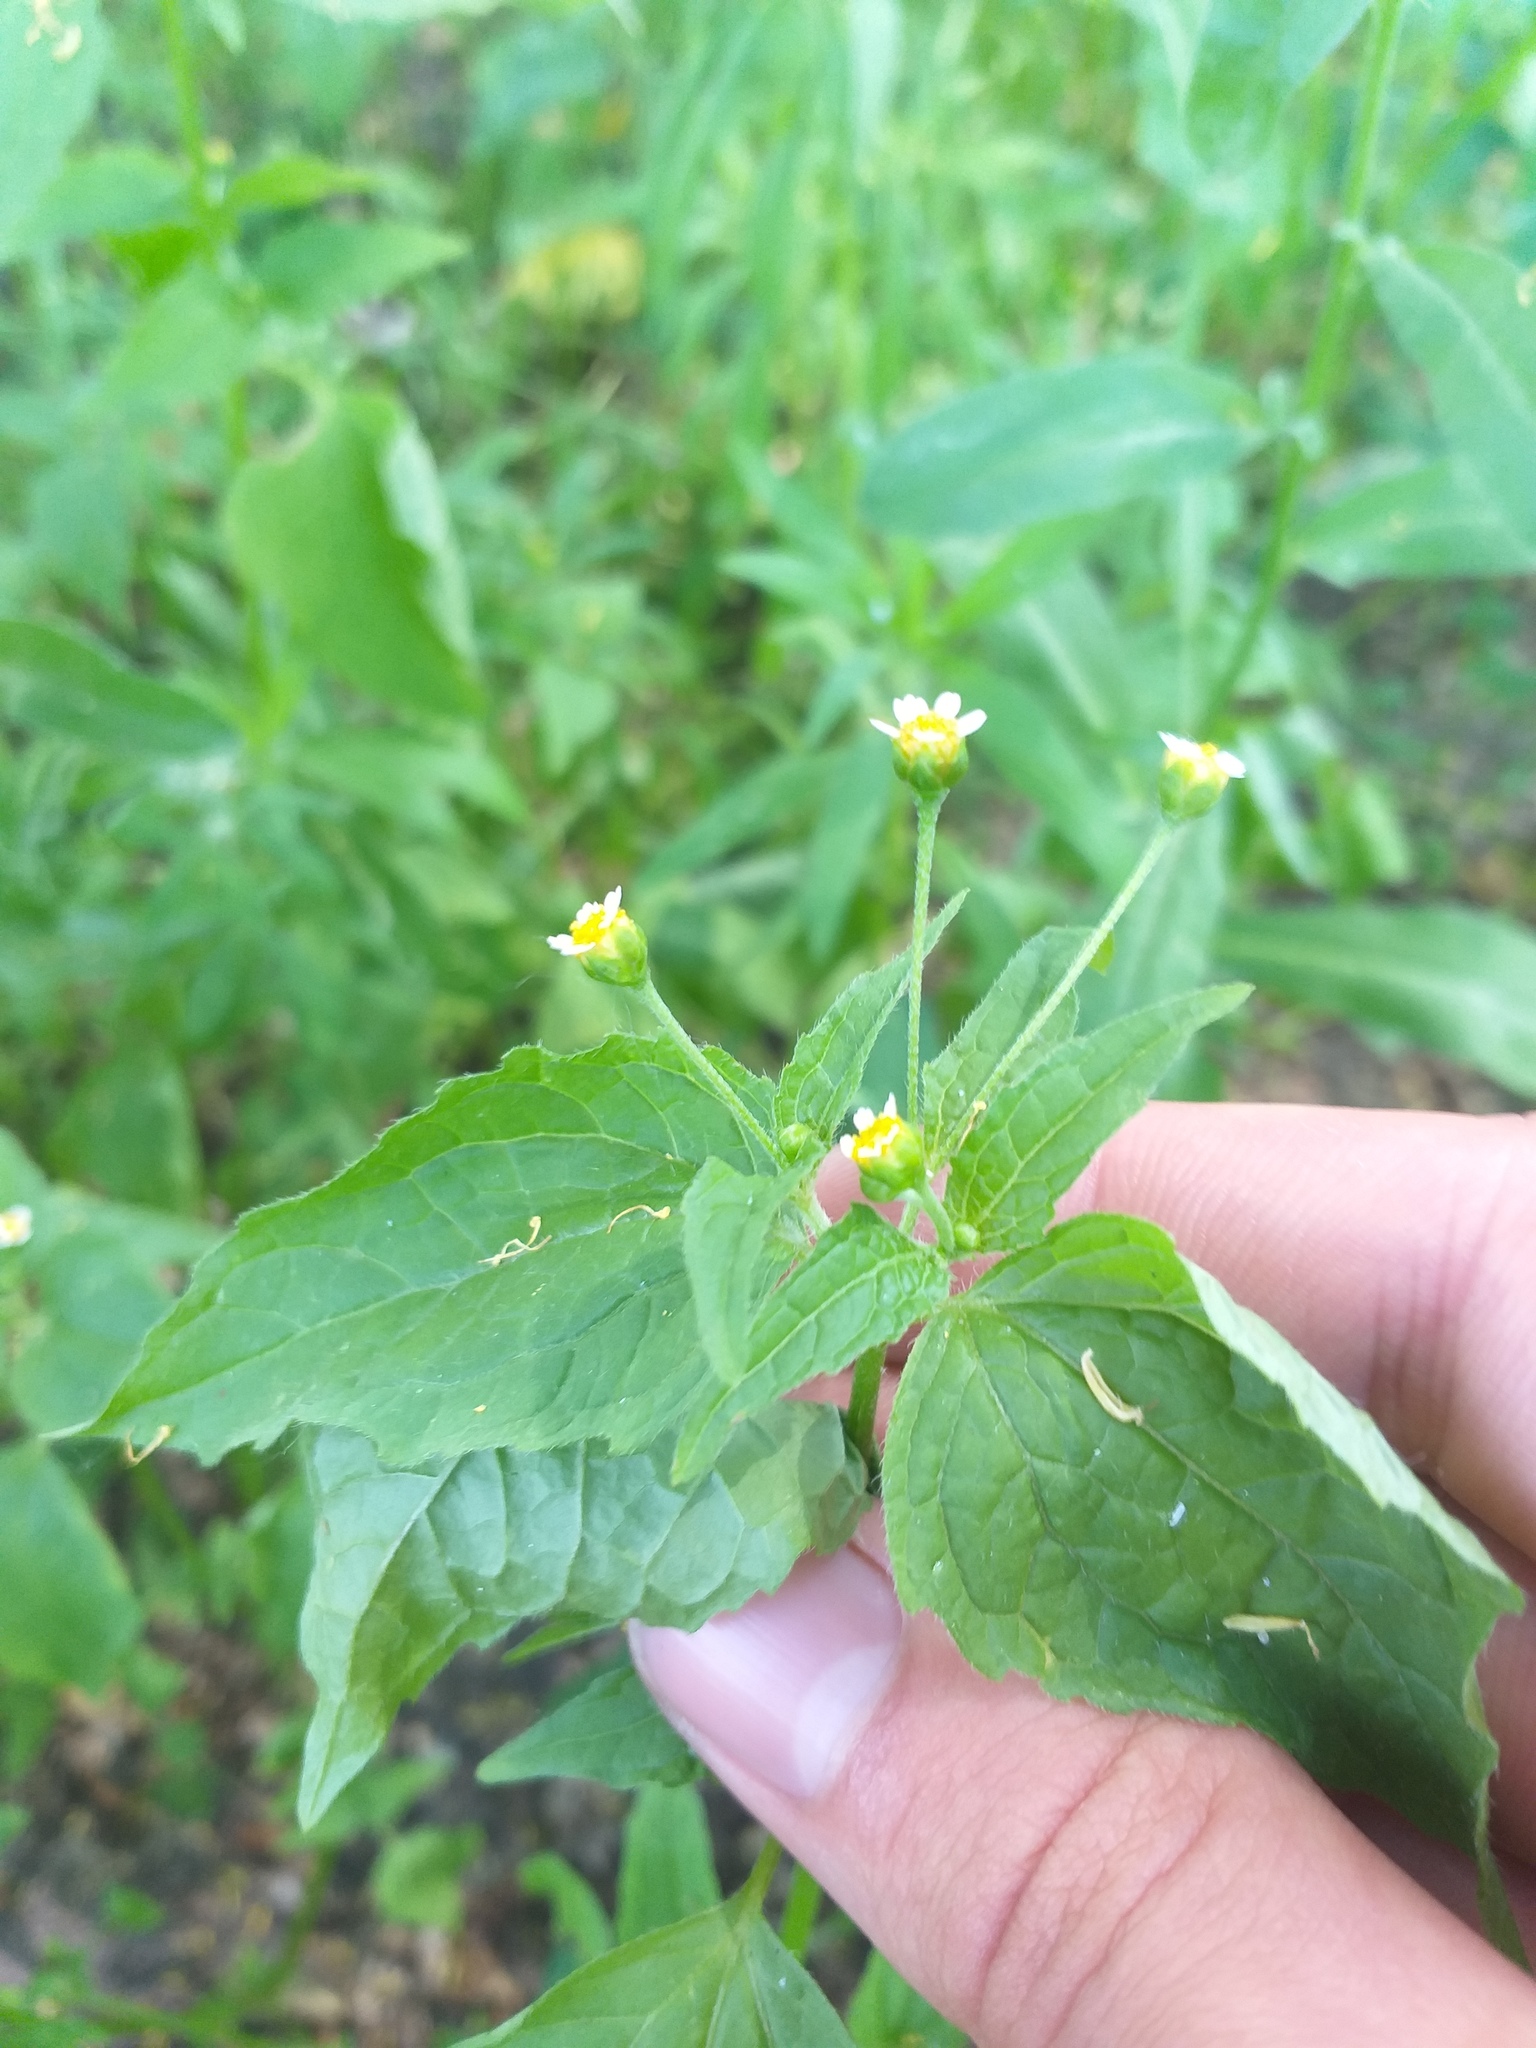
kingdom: Plantae
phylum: Tracheophyta
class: Magnoliopsida
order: Asterales
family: Asteraceae
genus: Galinsoga
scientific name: Galinsoga parviflora
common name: Gallant soldier
